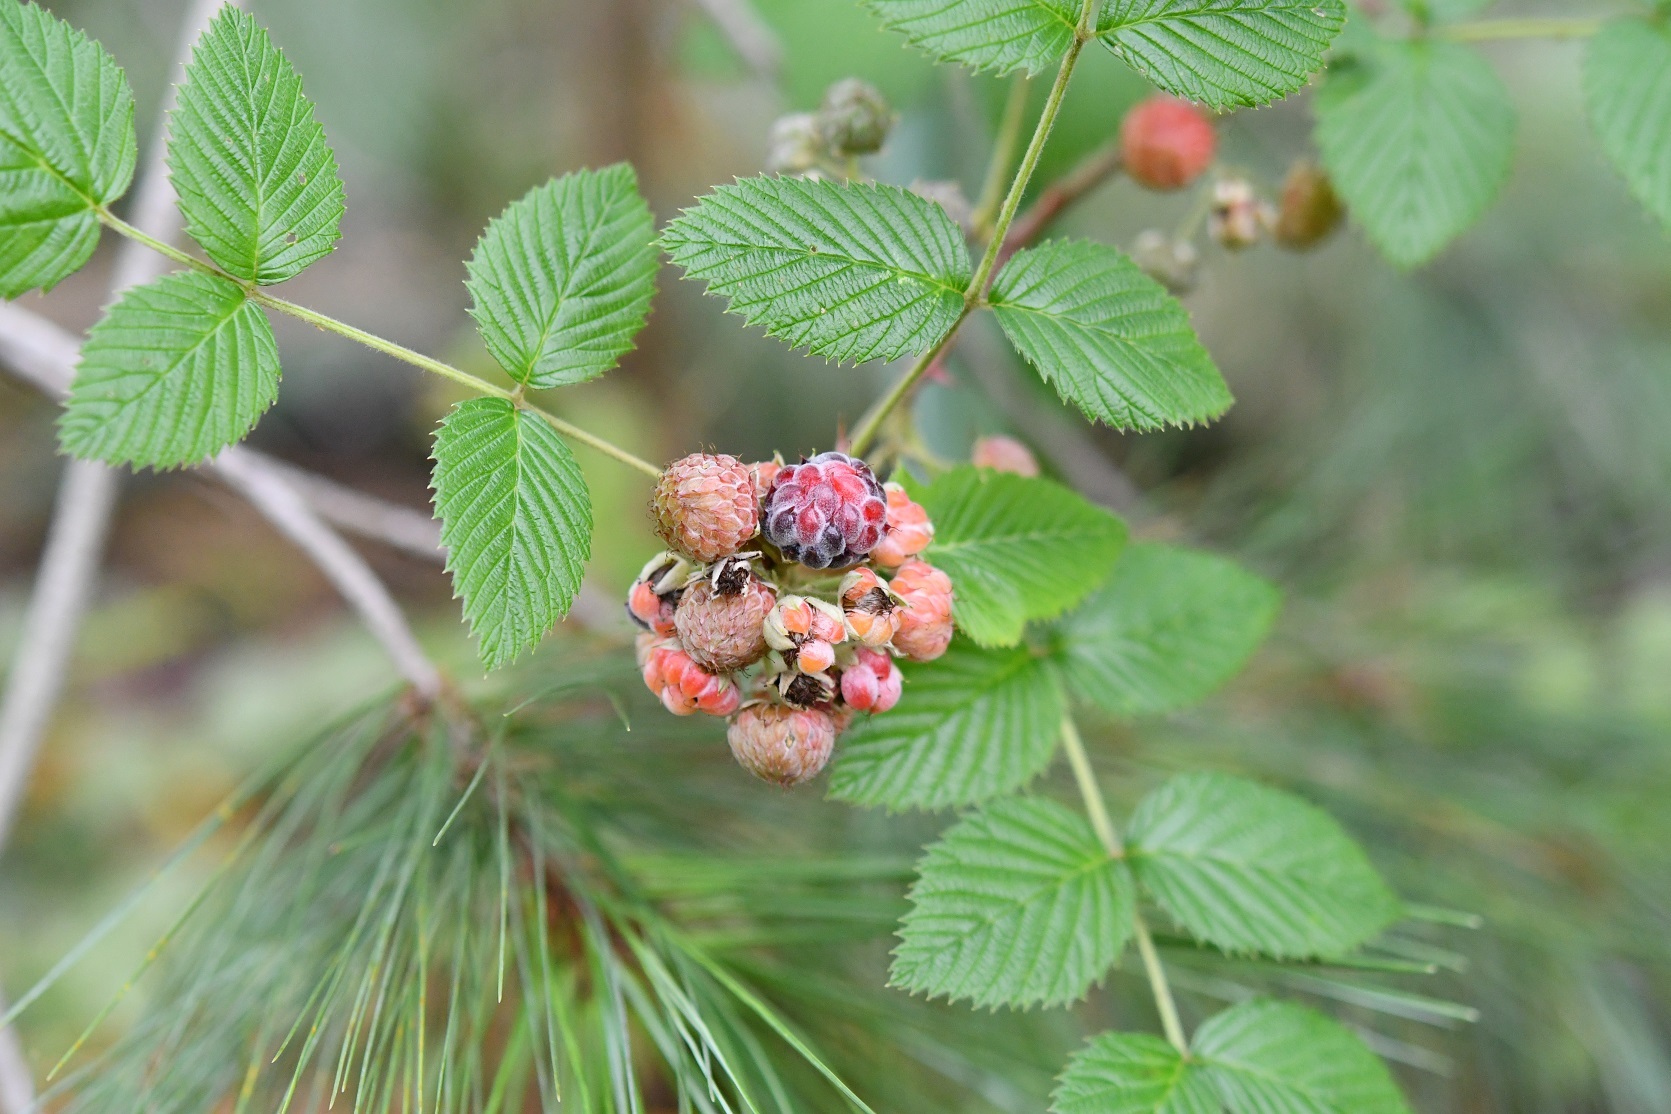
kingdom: Plantae
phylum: Tracheophyta
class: Magnoliopsida
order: Rosales
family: Rosaceae
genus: Rubus
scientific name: Rubus niveus
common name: Snowpeaks raspberry
